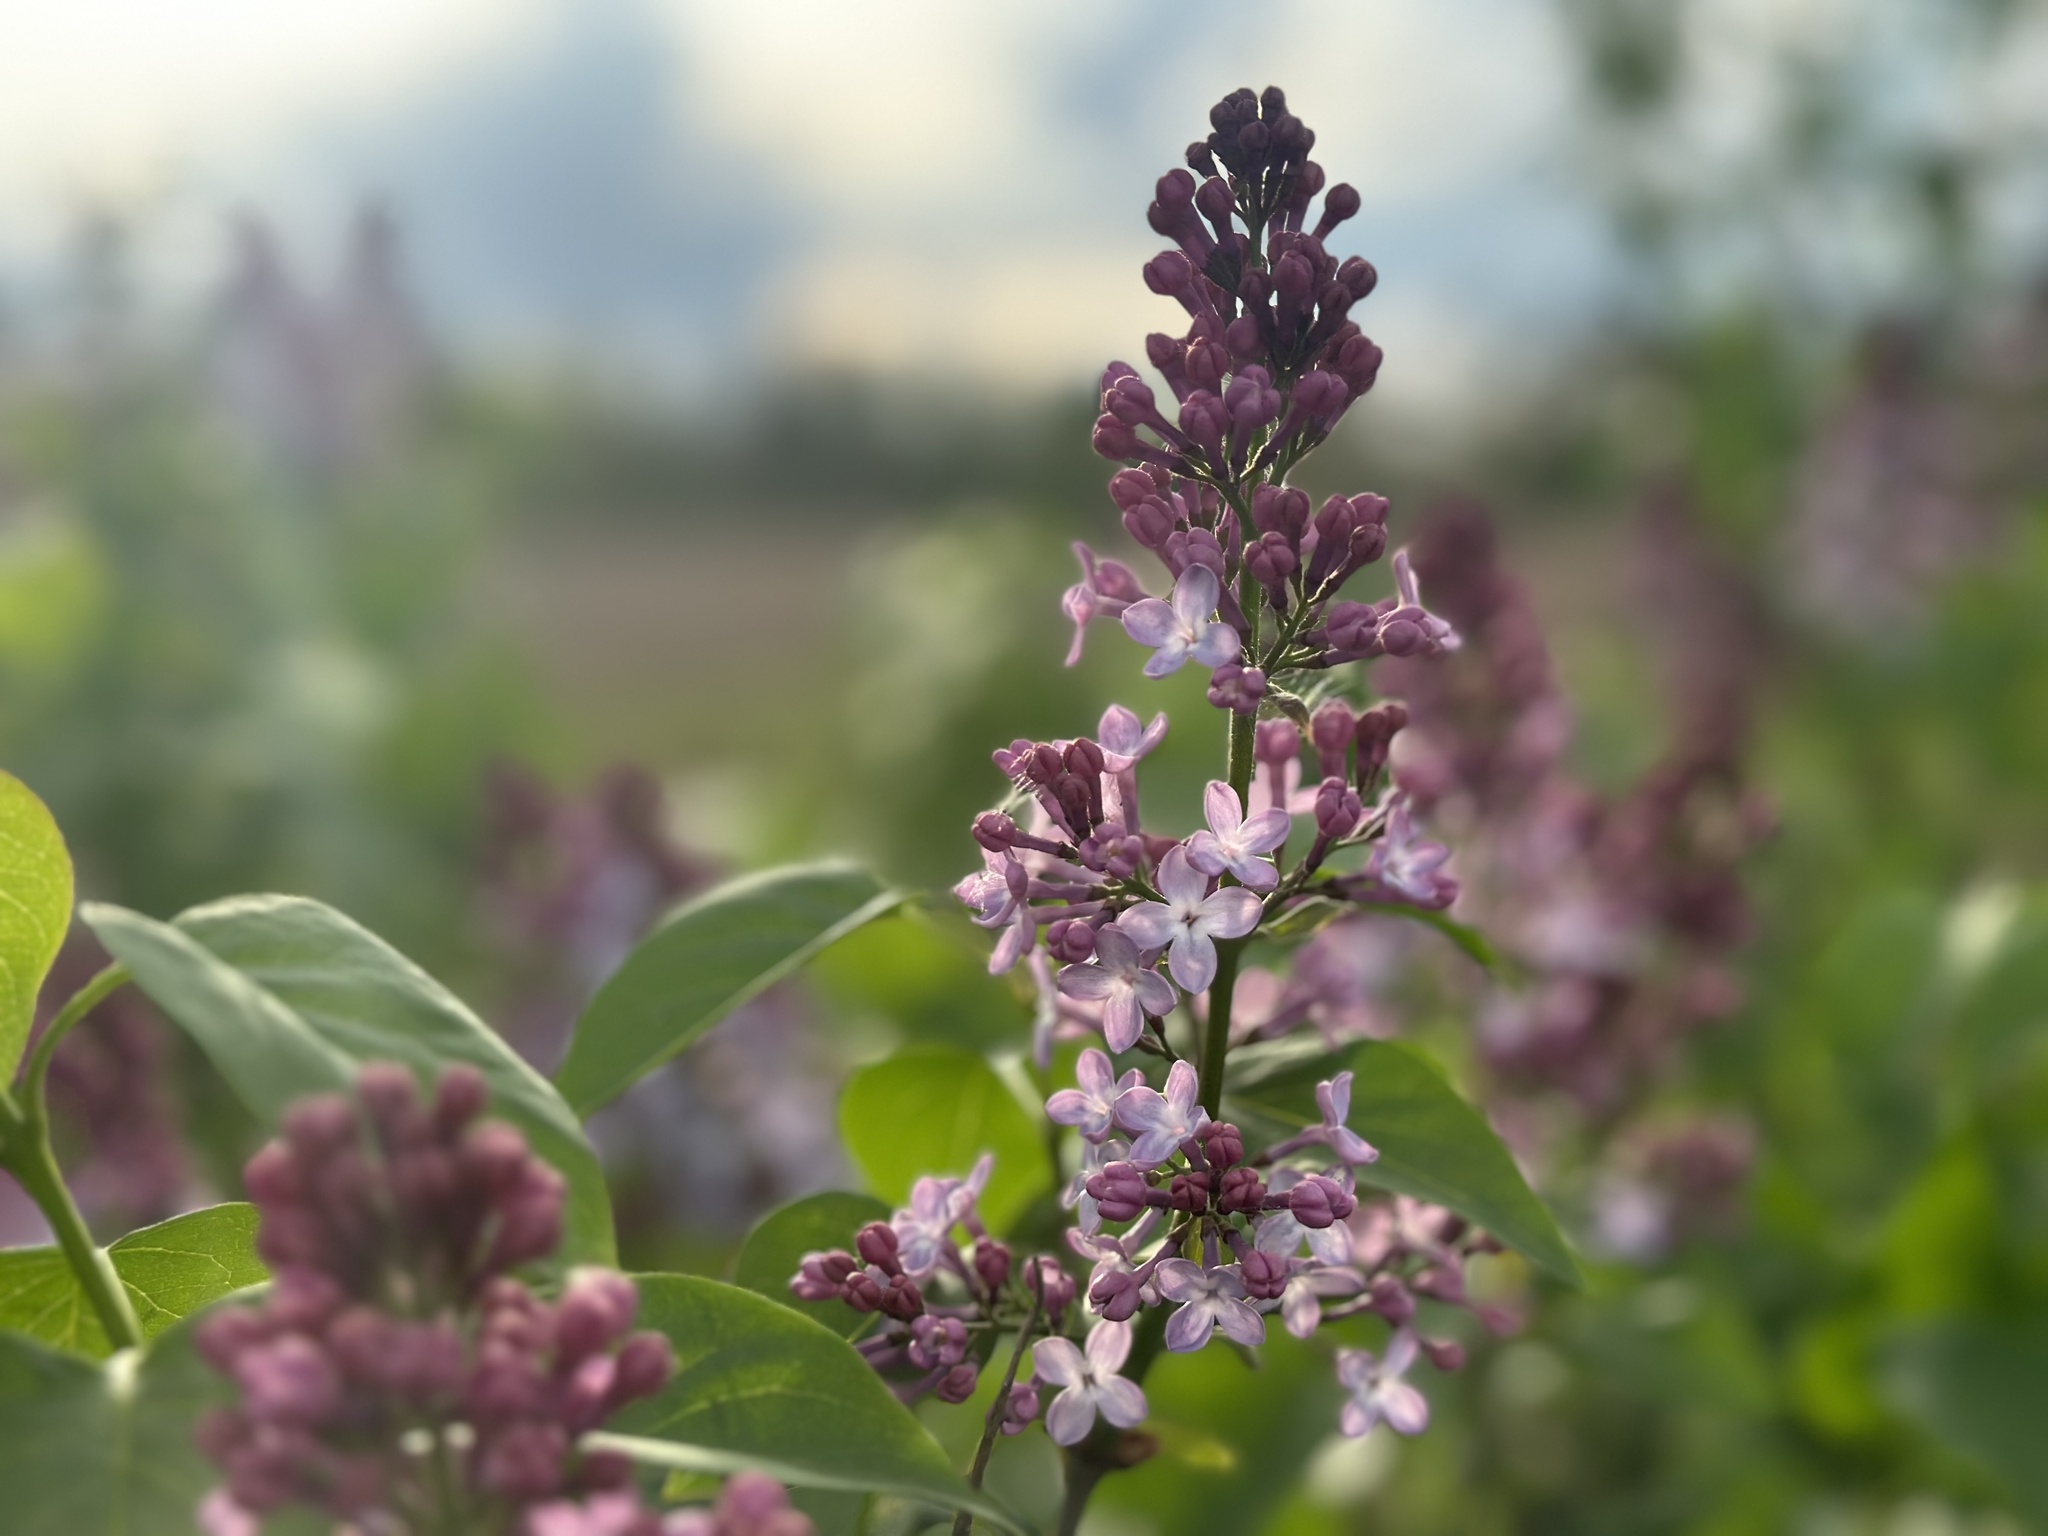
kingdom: Plantae
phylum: Tracheophyta
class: Magnoliopsida
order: Lamiales
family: Oleaceae
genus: Syringa
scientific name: Syringa vulgaris
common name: Common lilac
